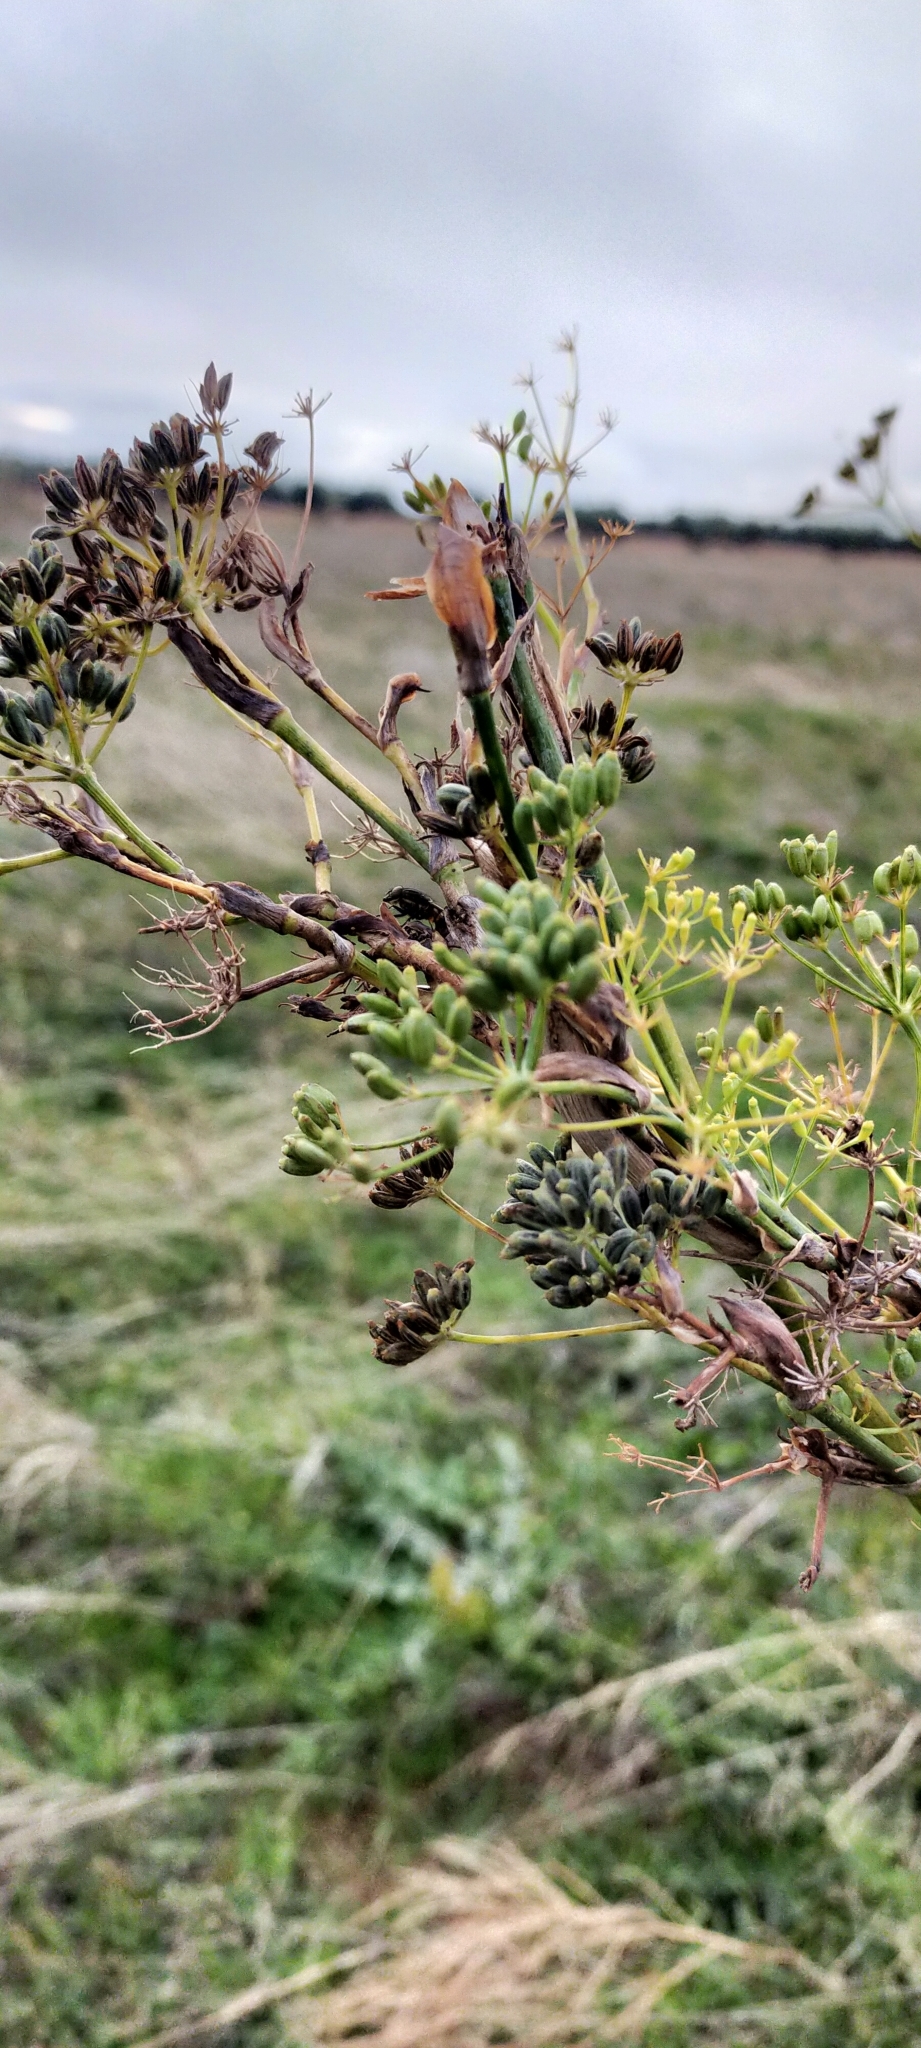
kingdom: Plantae
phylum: Tracheophyta
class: Magnoliopsida
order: Apiales
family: Apiaceae
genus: Foeniculum
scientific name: Foeniculum vulgare
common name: Fennel
